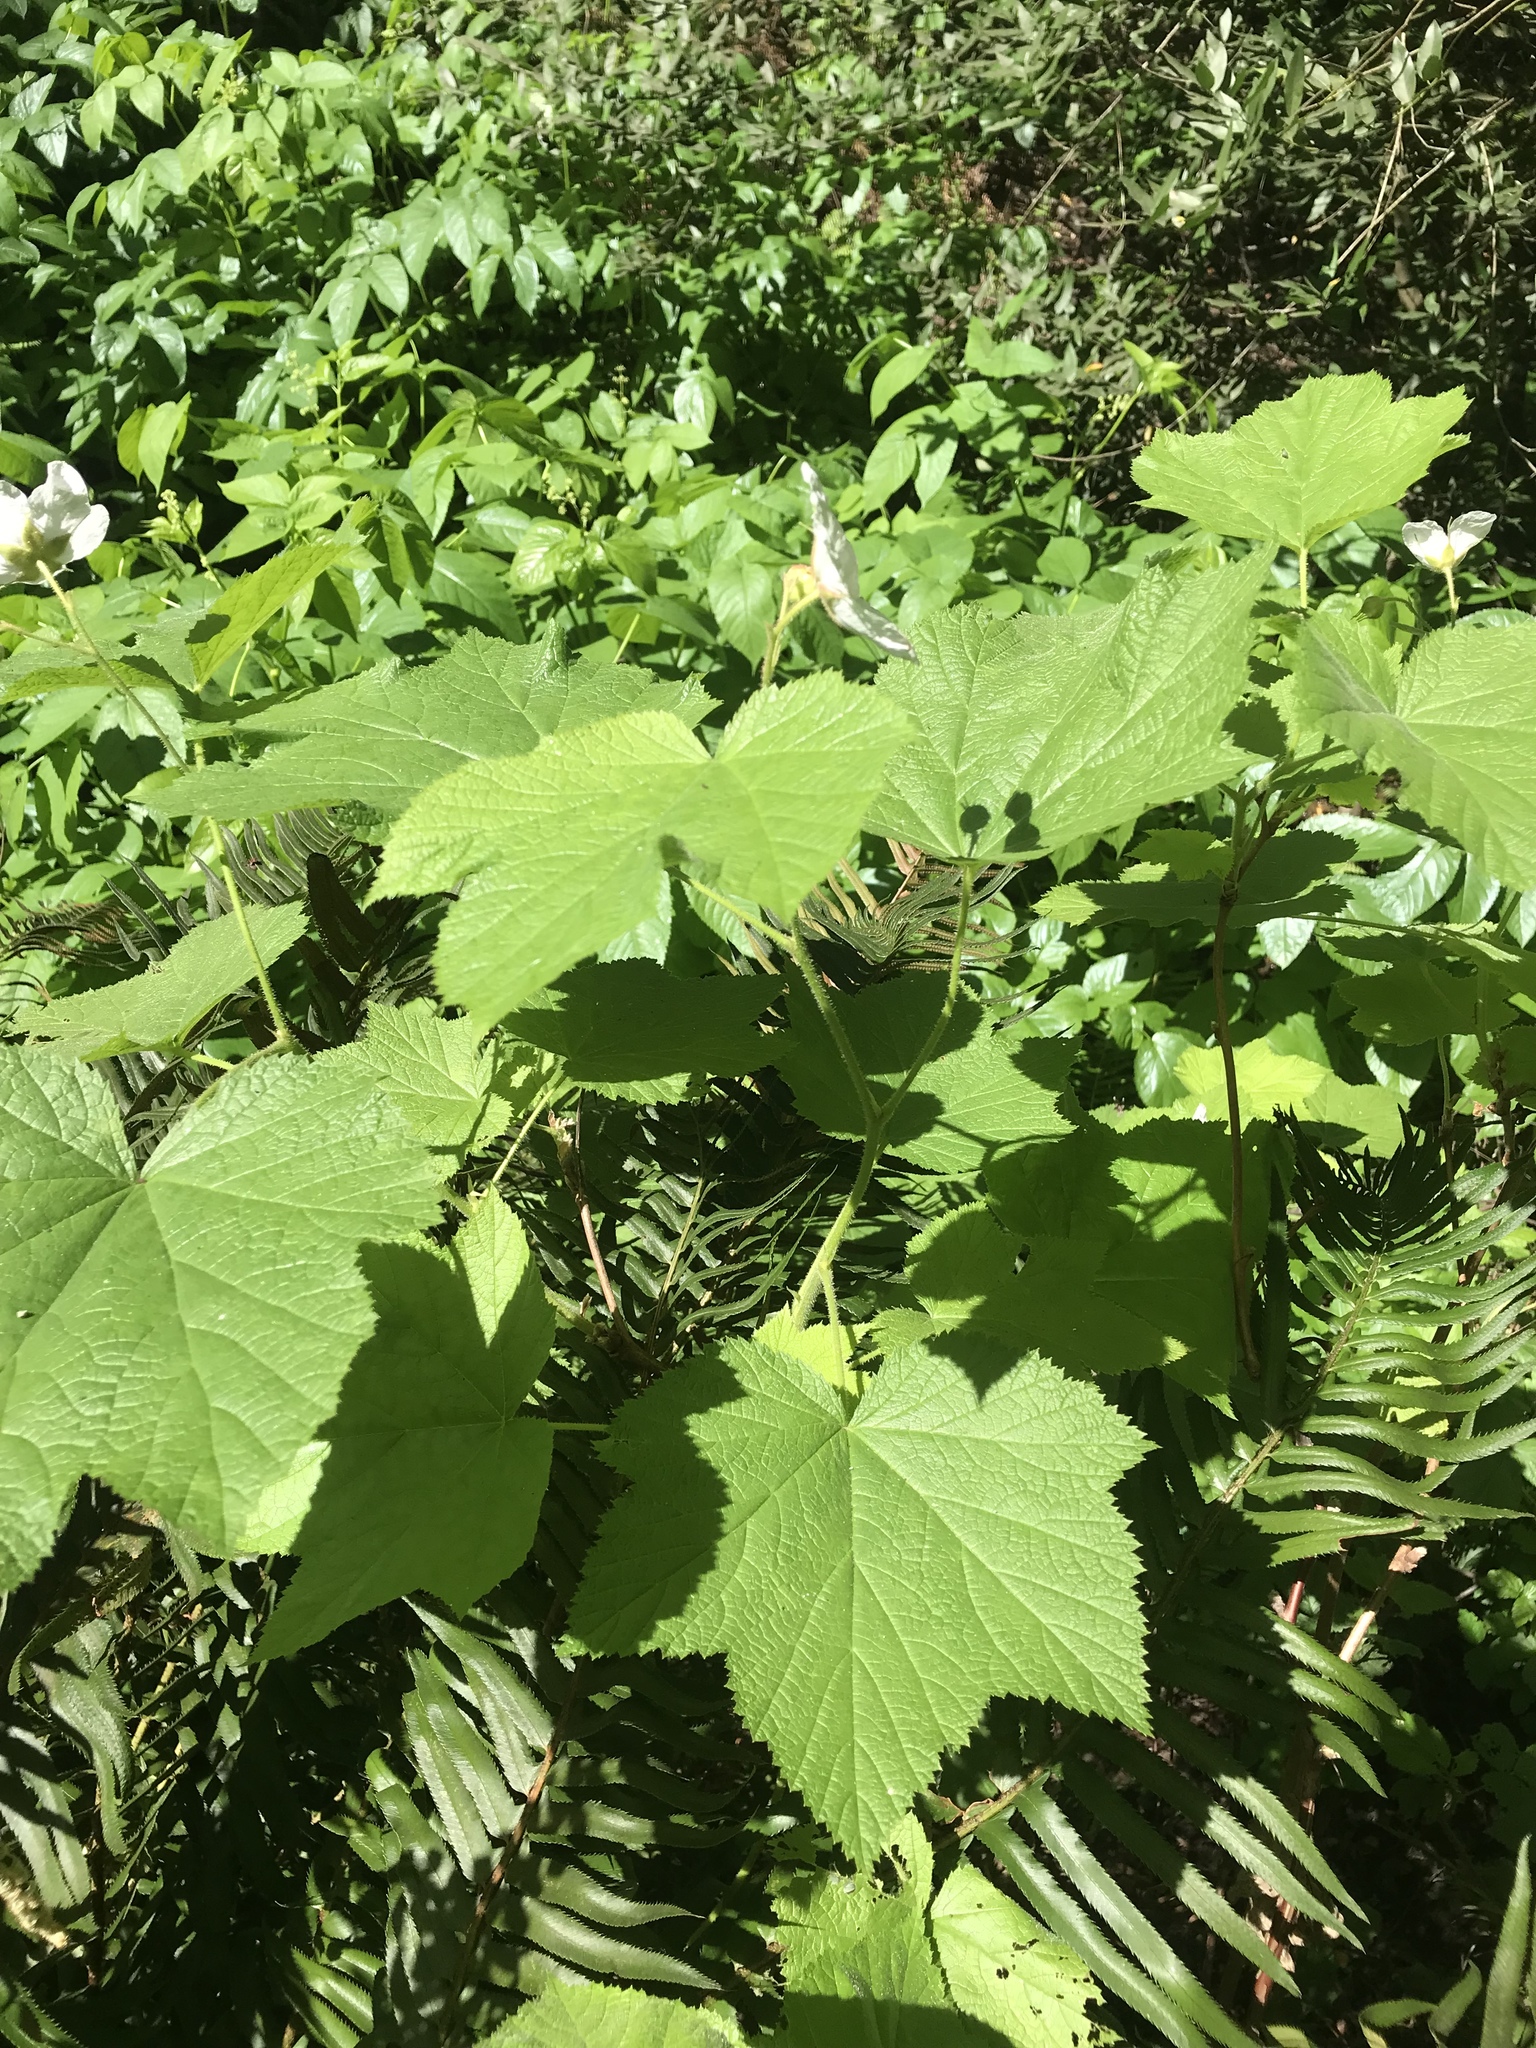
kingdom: Plantae
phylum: Tracheophyta
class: Magnoliopsida
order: Rosales
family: Rosaceae
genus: Rubus
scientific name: Rubus parviflorus
